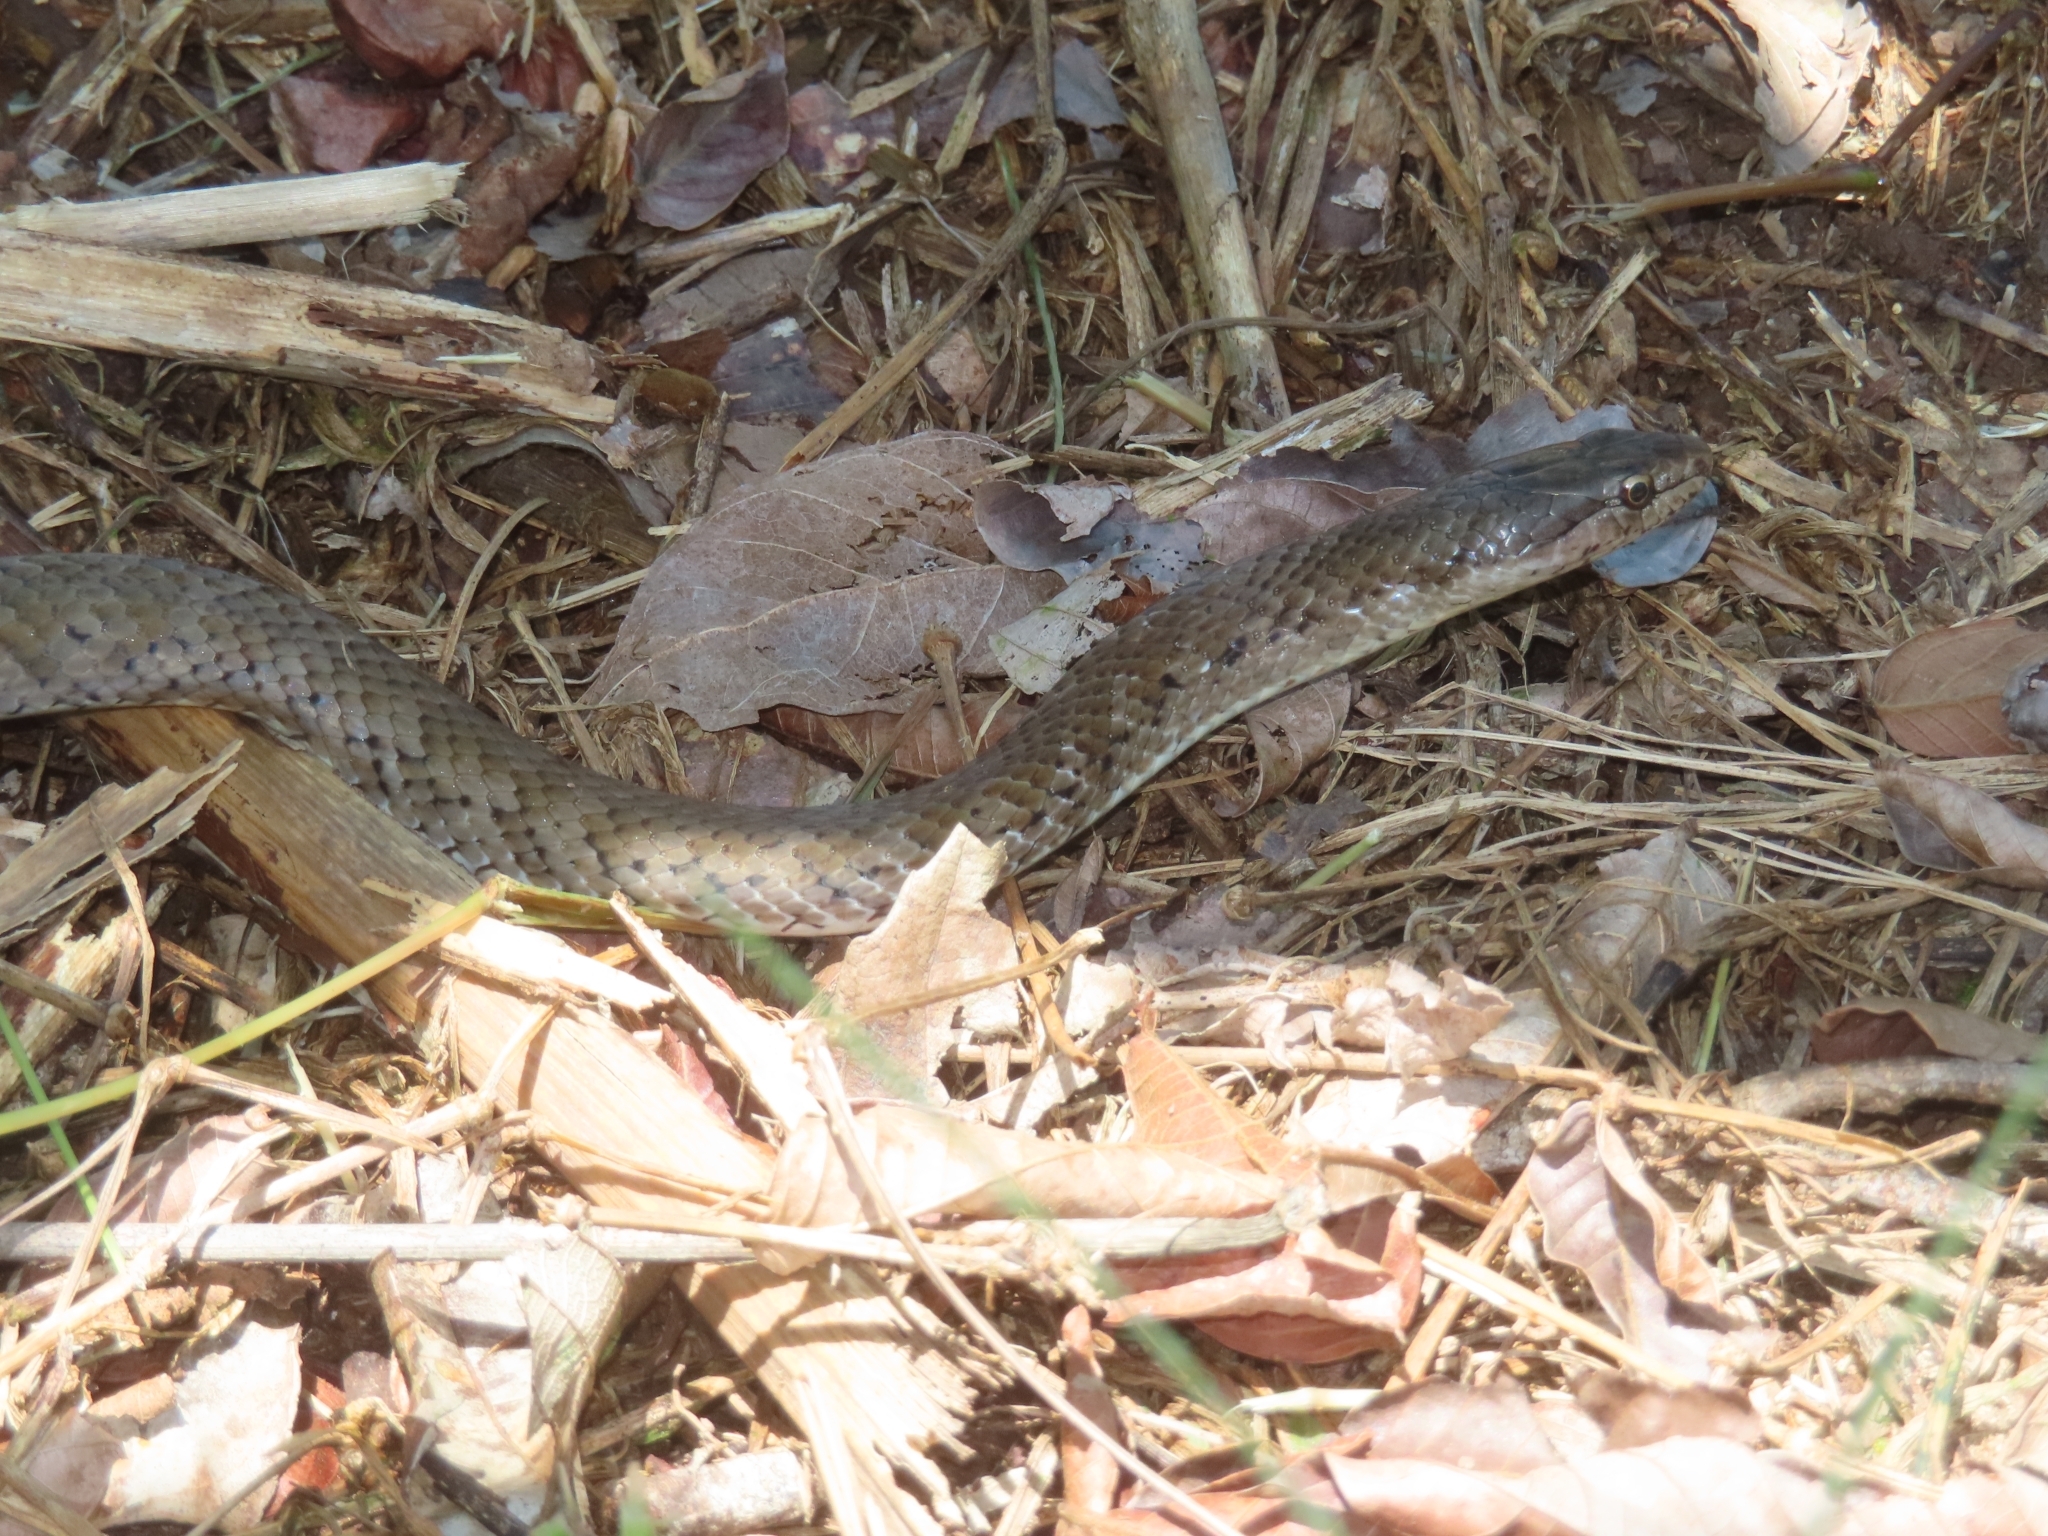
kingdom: Animalia
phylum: Chordata
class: Squamata
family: Colubridae
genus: Borikenophis
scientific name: Borikenophis portoricensis
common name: Puerto rican racer
